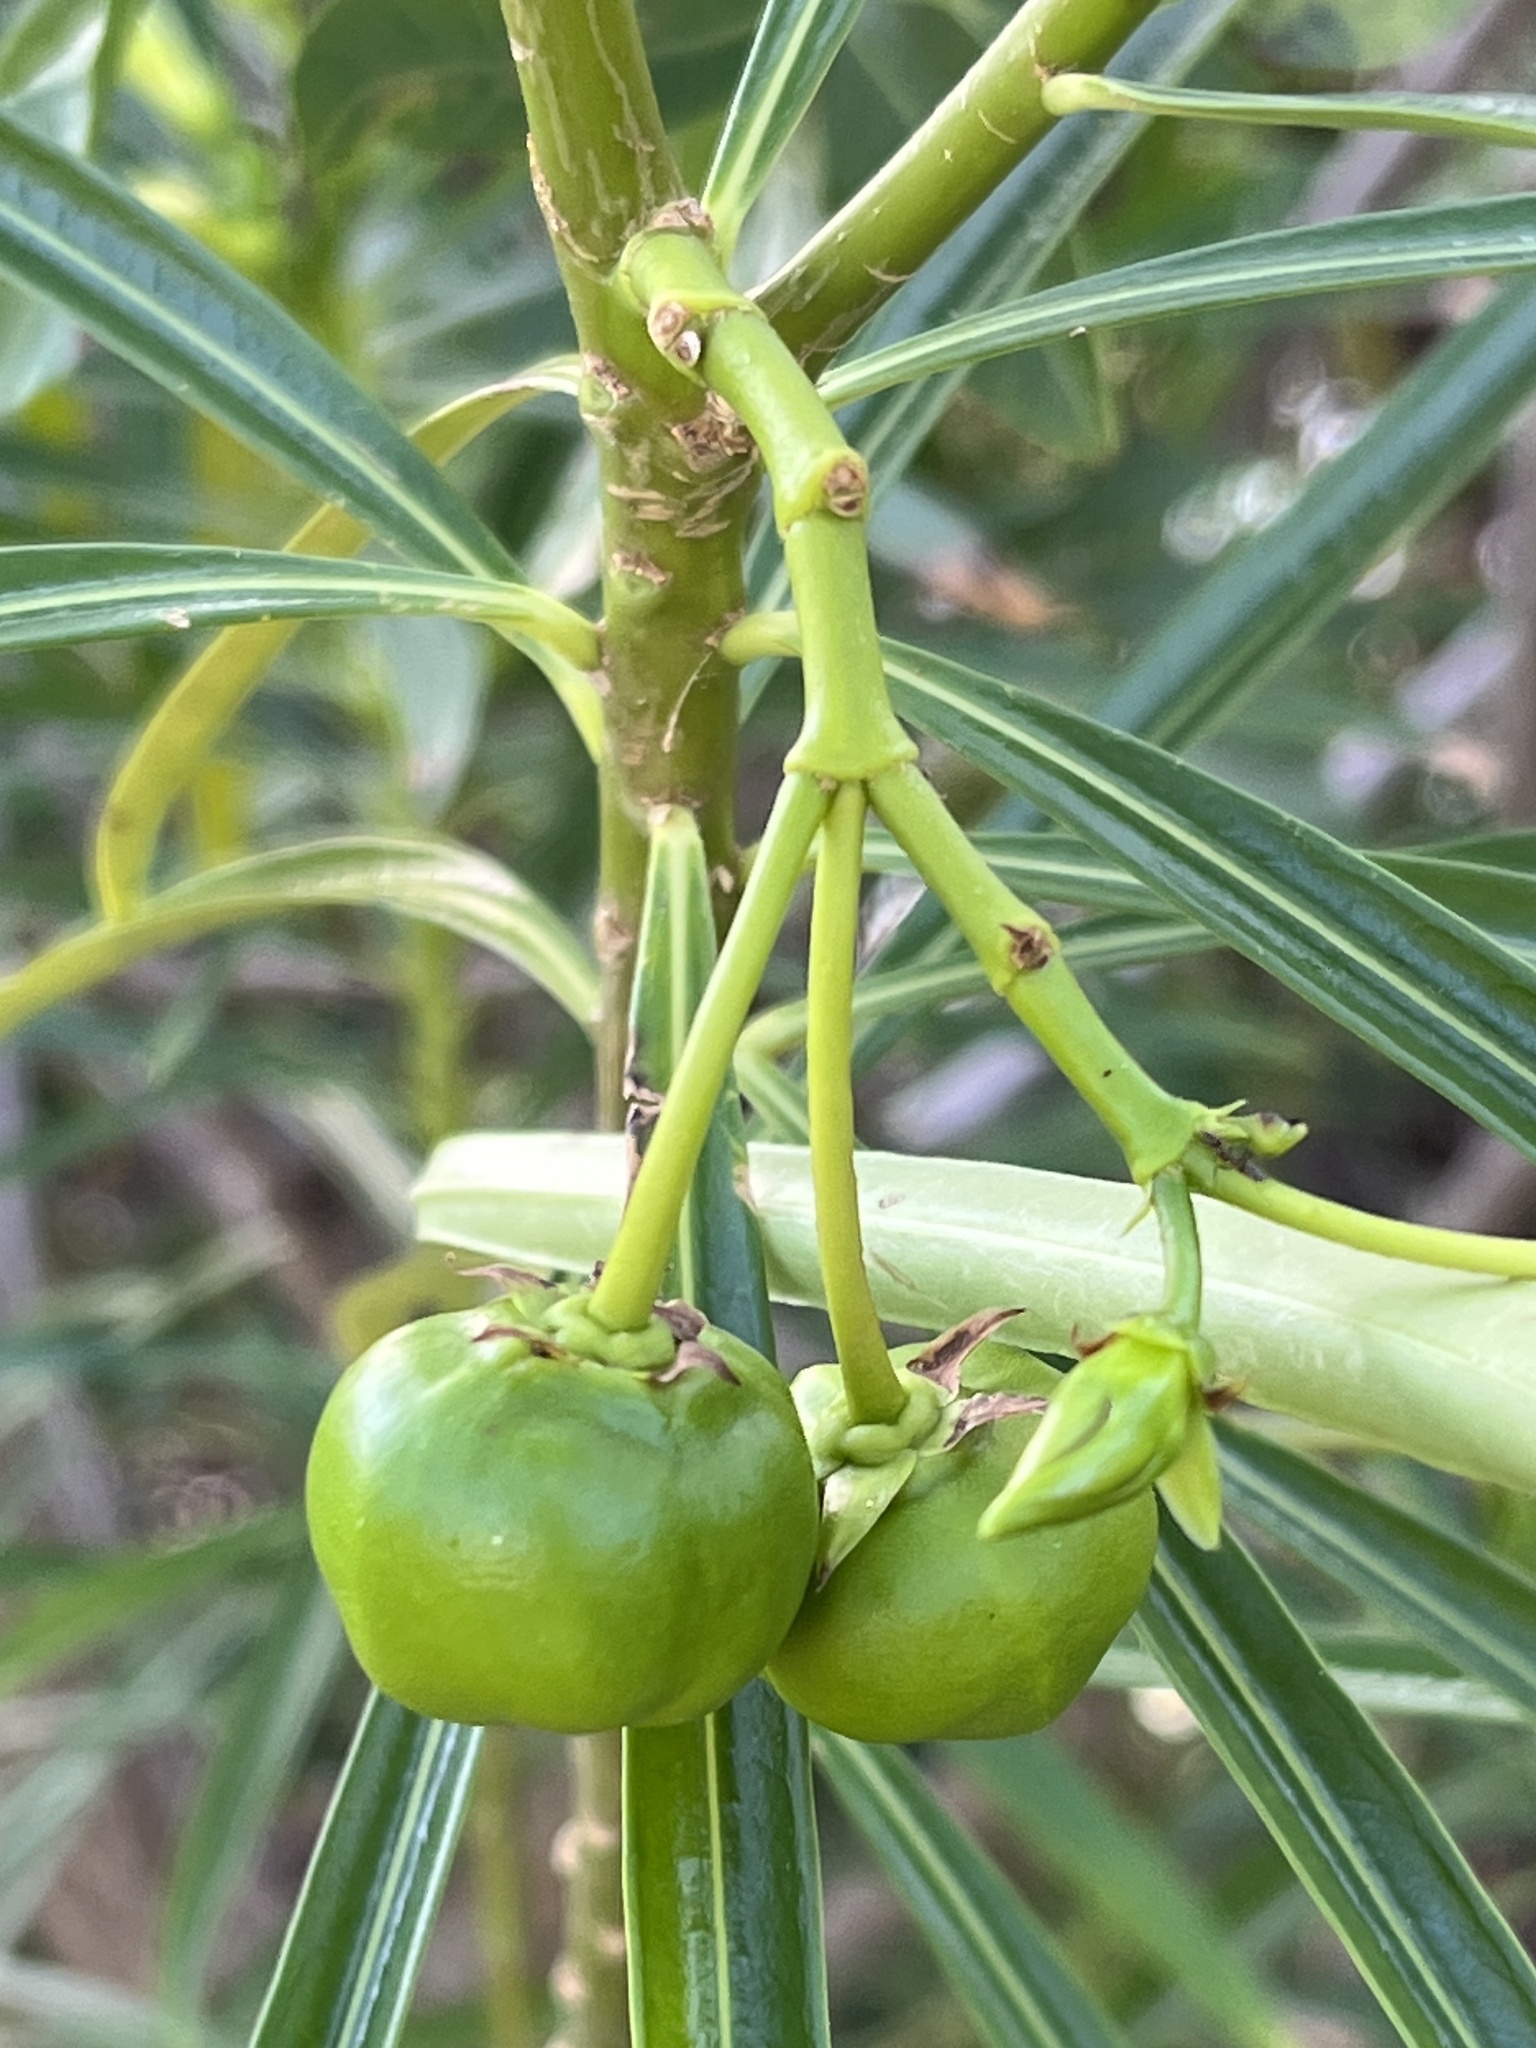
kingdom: Plantae
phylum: Tracheophyta
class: Magnoliopsida
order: Gentianales
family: Apocynaceae
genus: Cascabela
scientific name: Cascabela thevetia
